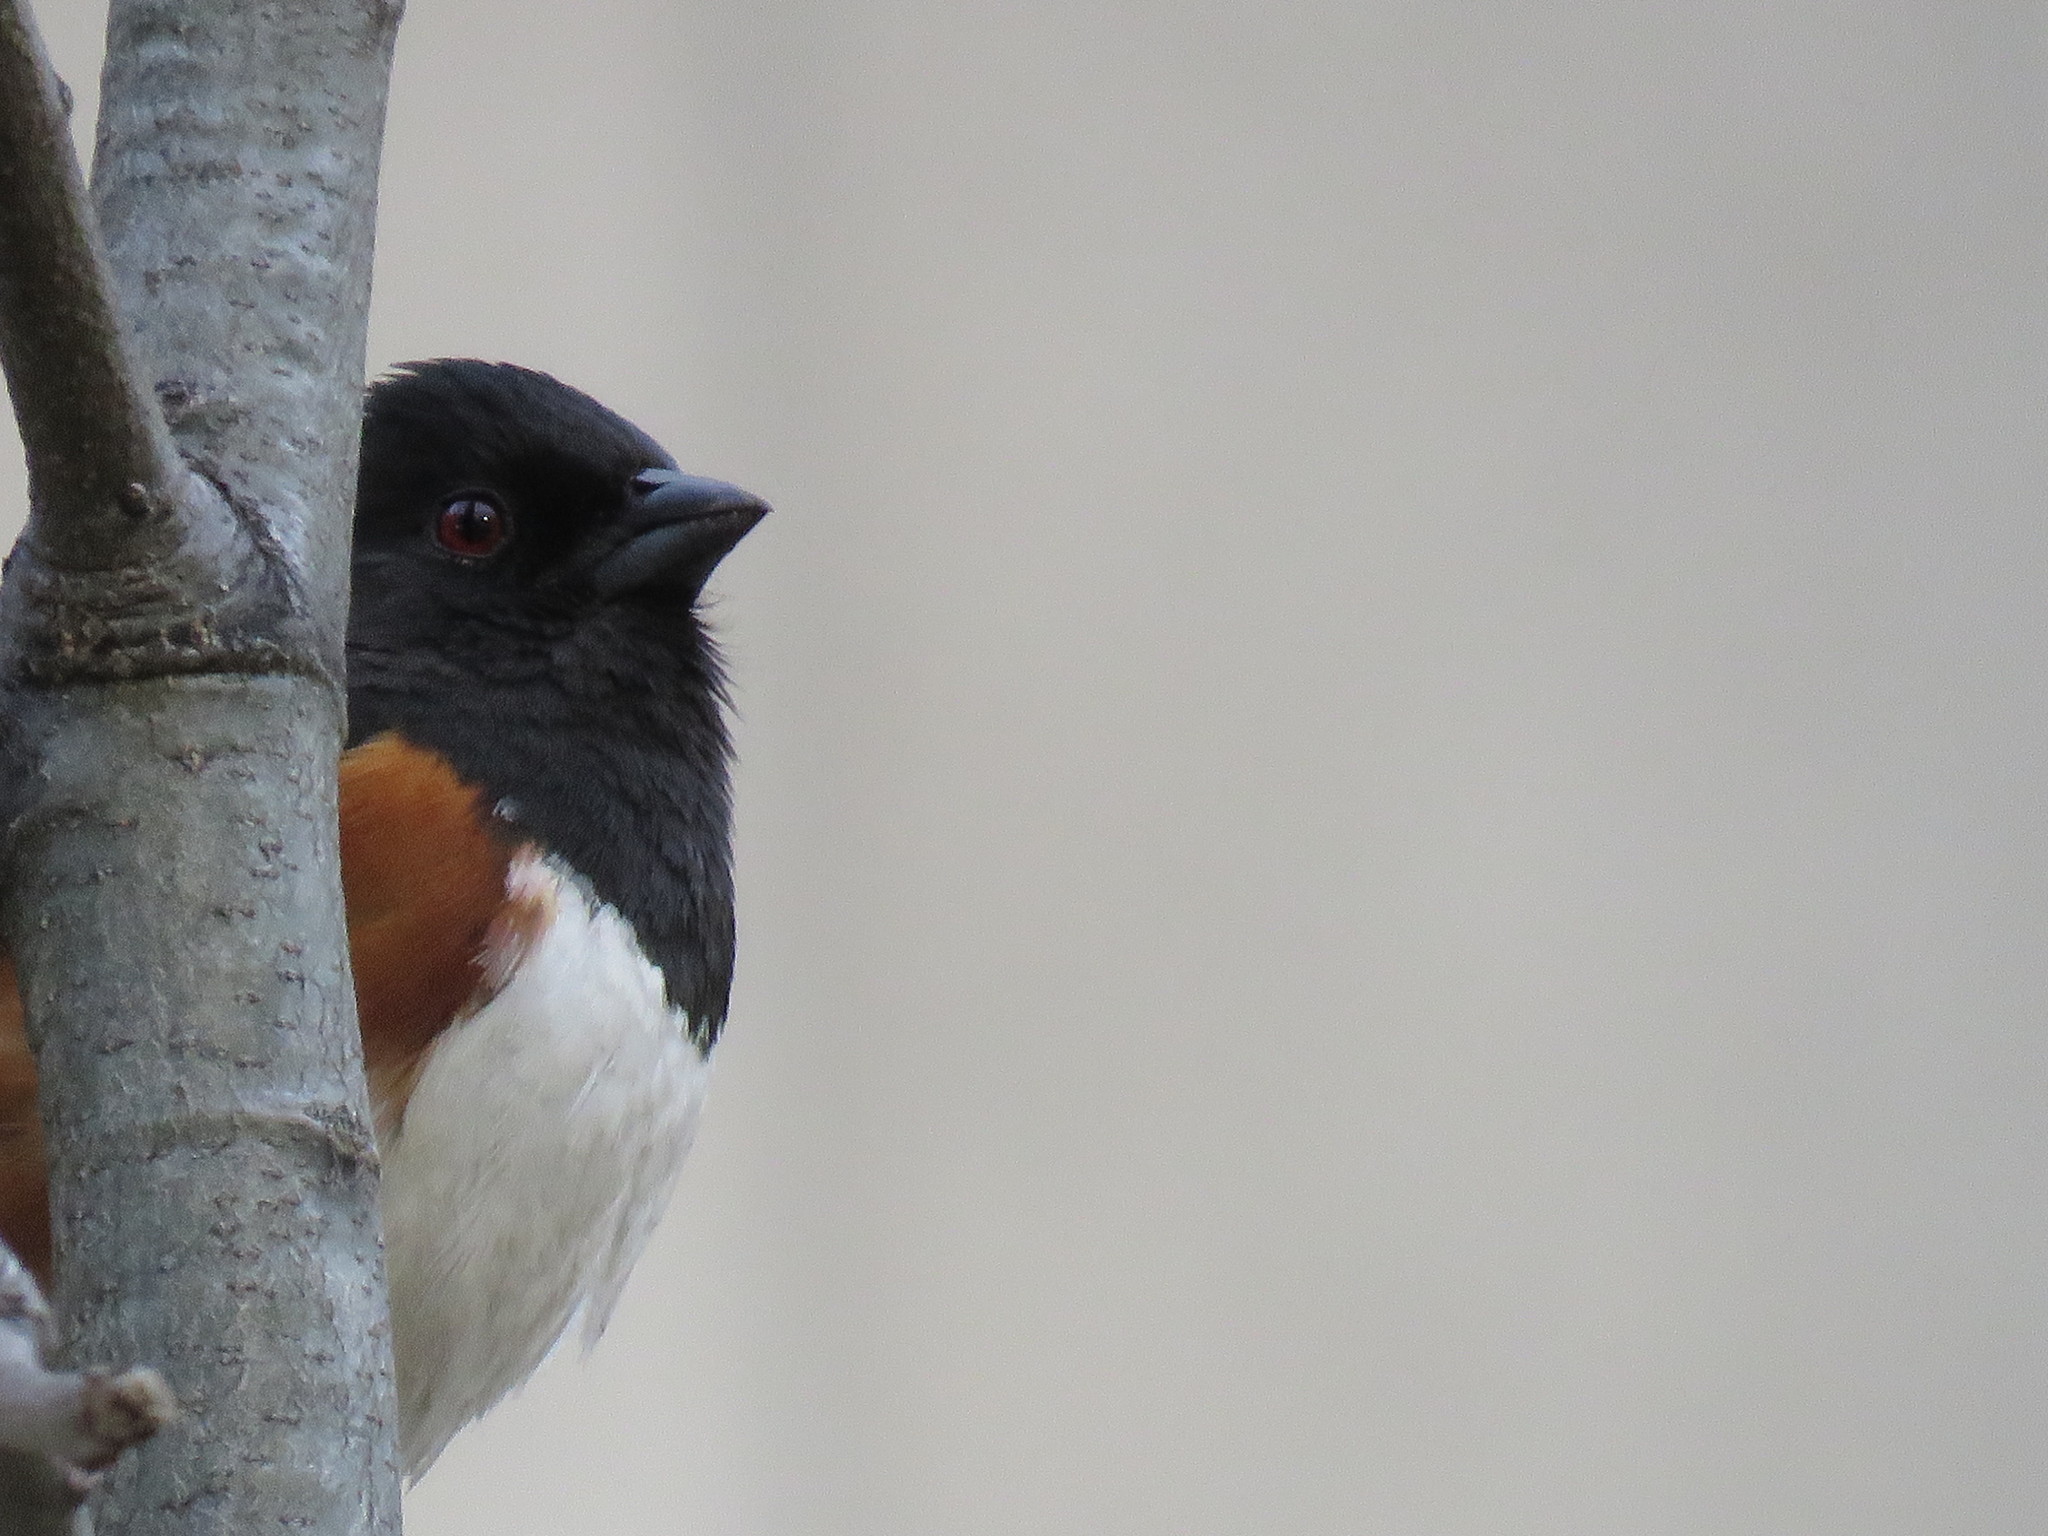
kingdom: Animalia
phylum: Chordata
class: Aves
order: Passeriformes
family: Passerellidae
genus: Pipilo
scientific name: Pipilo erythrophthalmus
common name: Eastern towhee
